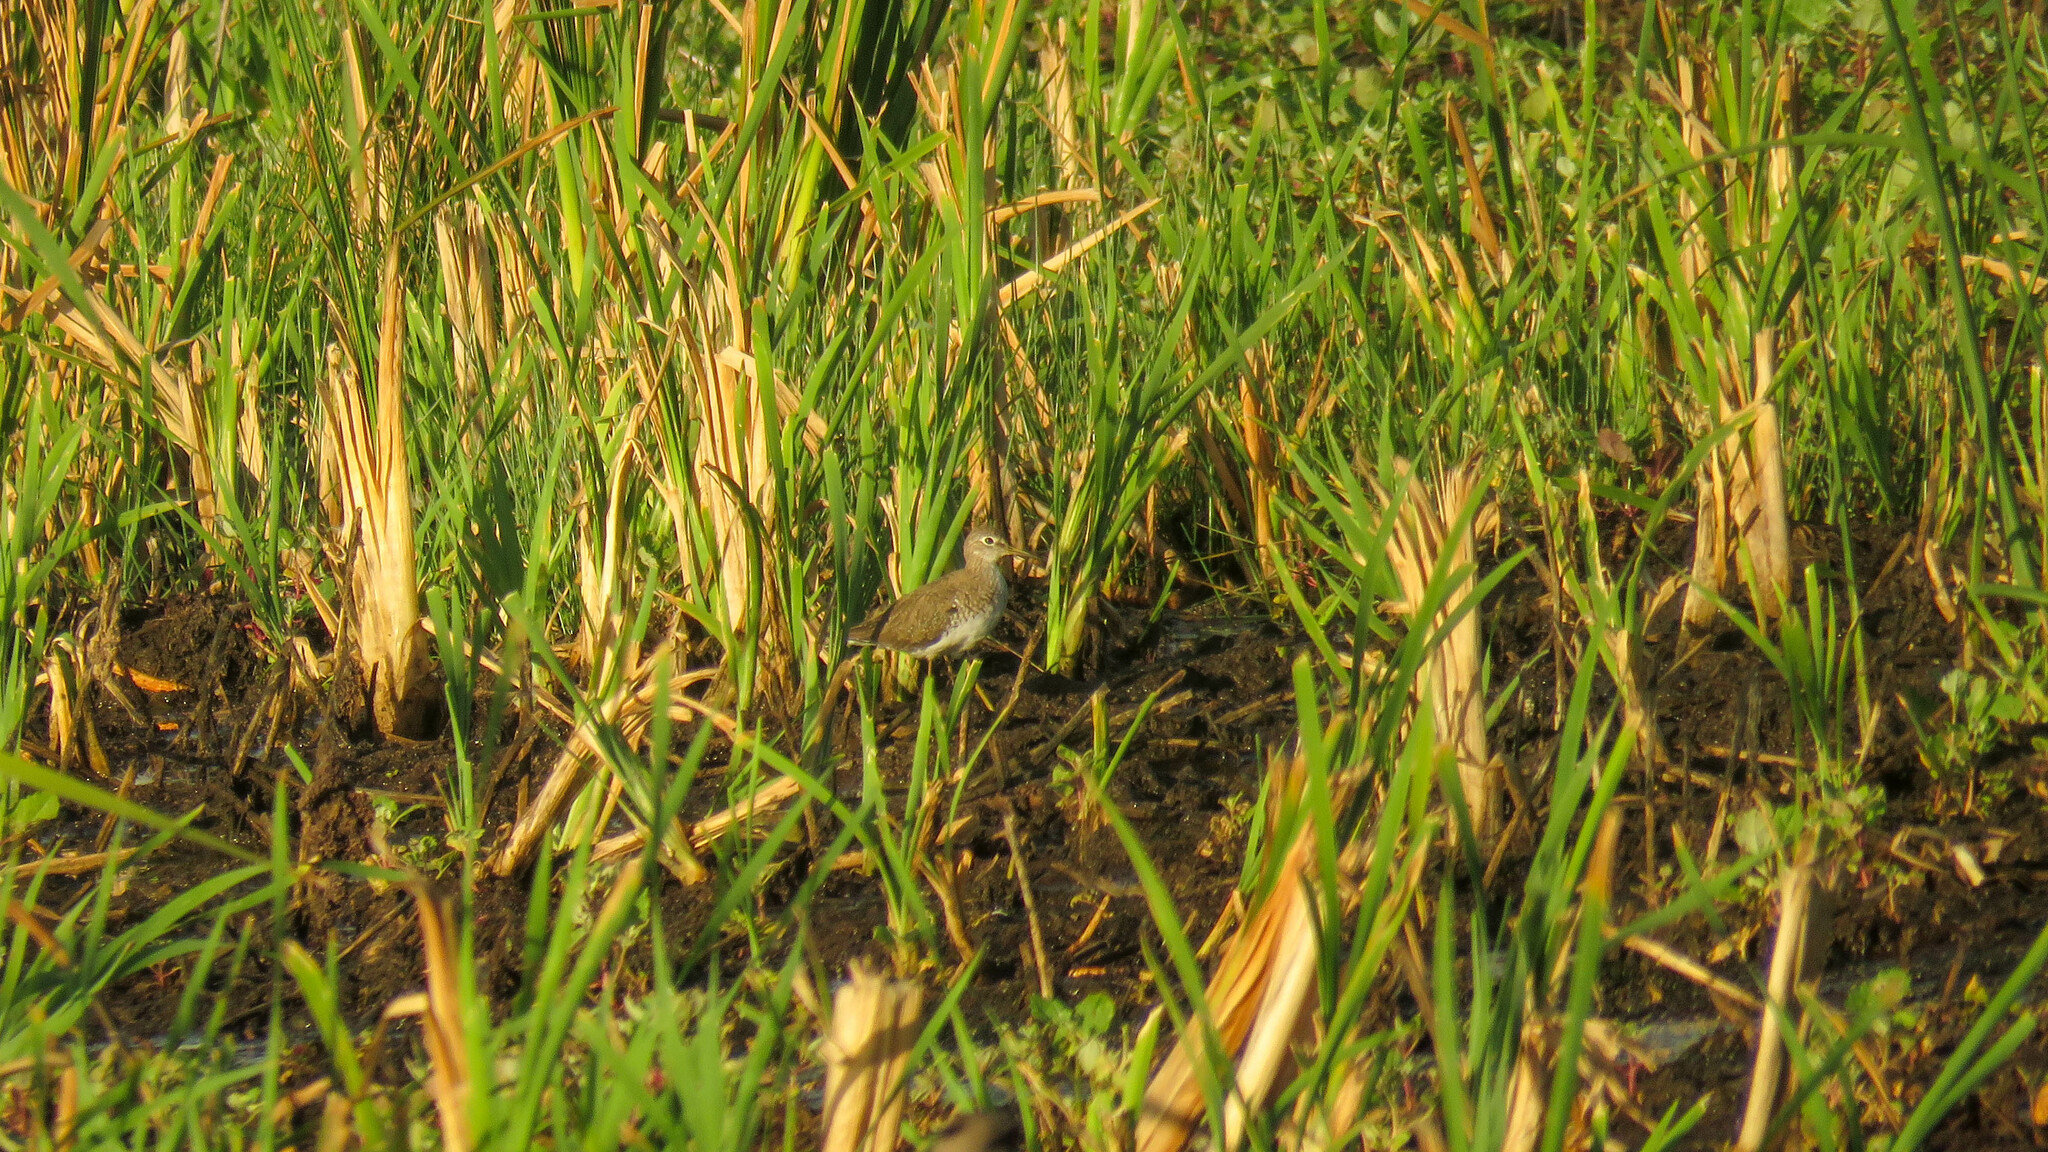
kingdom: Animalia
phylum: Chordata
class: Aves
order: Charadriiformes
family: Scolopacidae
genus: Tringa
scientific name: Tringa solitaria
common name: Solitary sandpiper
